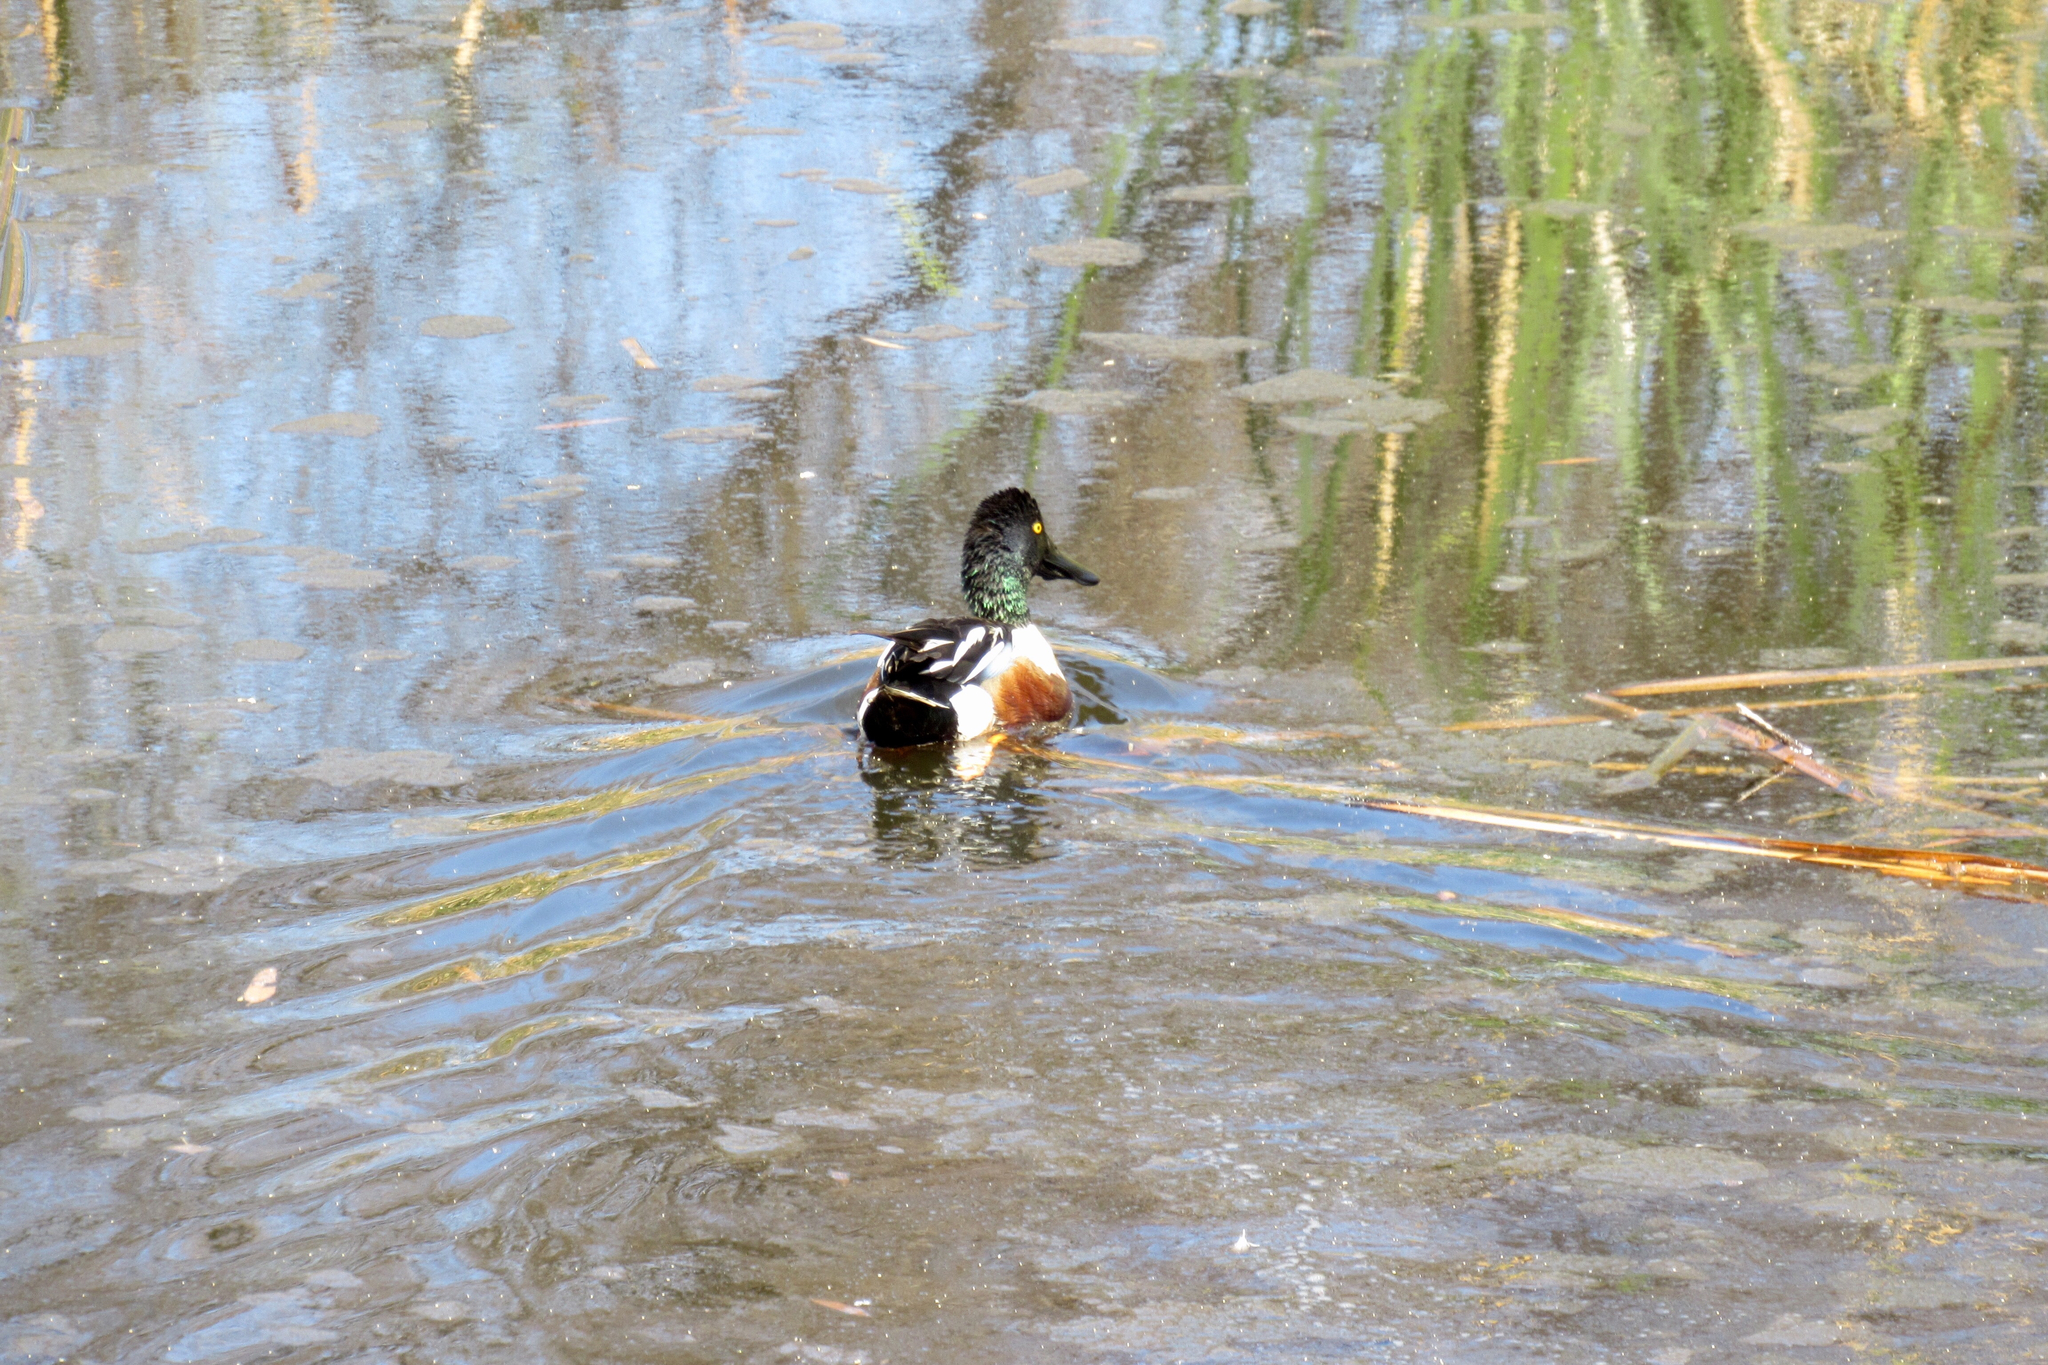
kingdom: Animalia
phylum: Chordata
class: Aves
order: Anseriformes
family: Anatidae
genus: Spatula
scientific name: Spatula clypeata
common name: Northern shoveler
